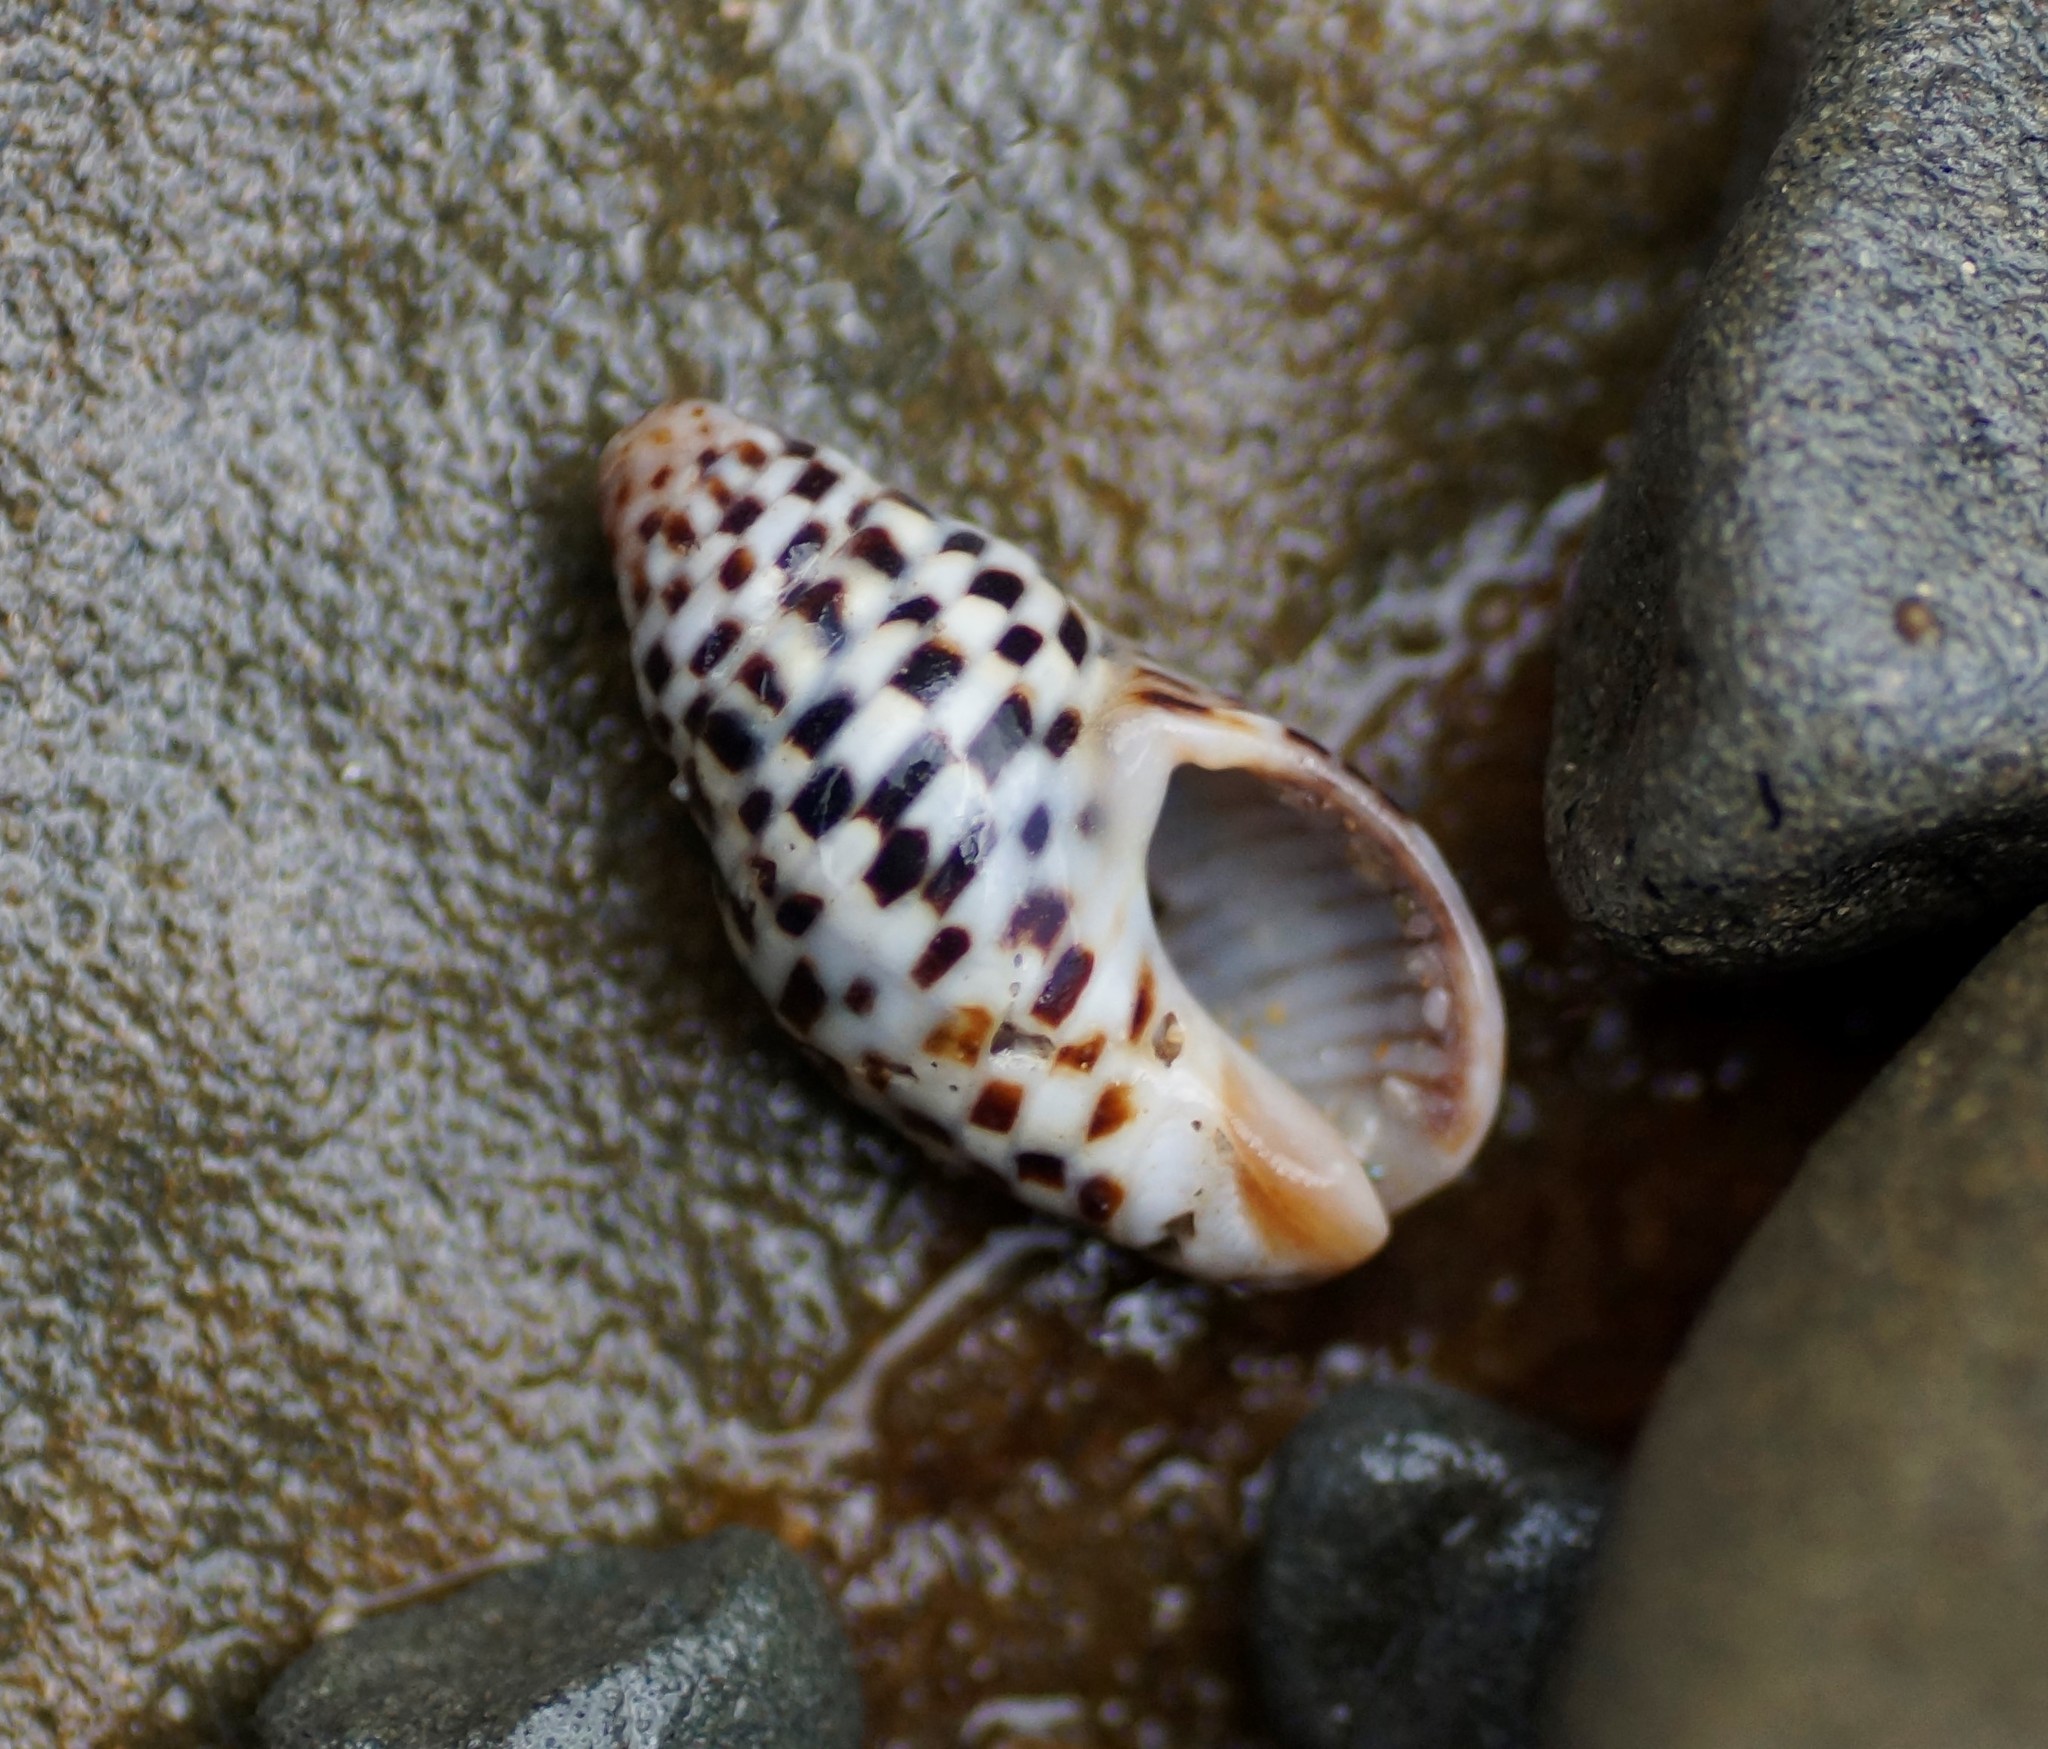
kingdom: Animalia
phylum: Mollusca
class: Gastropoda
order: Neogastropoda
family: Cominellidae
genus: Cominella
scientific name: Cominella lineolata
